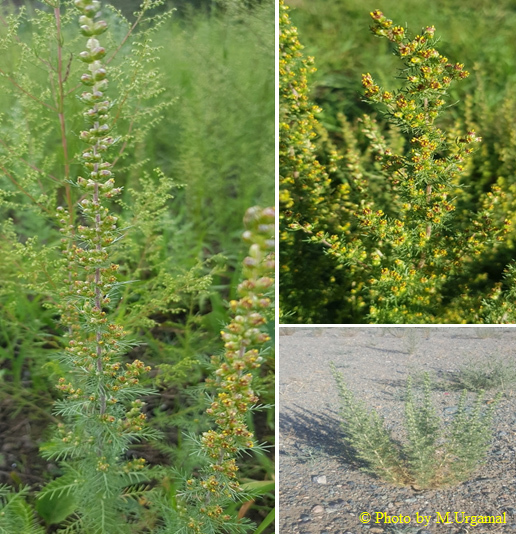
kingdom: Plantae
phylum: Tracheophyta
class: Magnoliopsida
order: Asterales
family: Asteraceae
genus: Neopallasia
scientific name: Neopallasia pectinata
